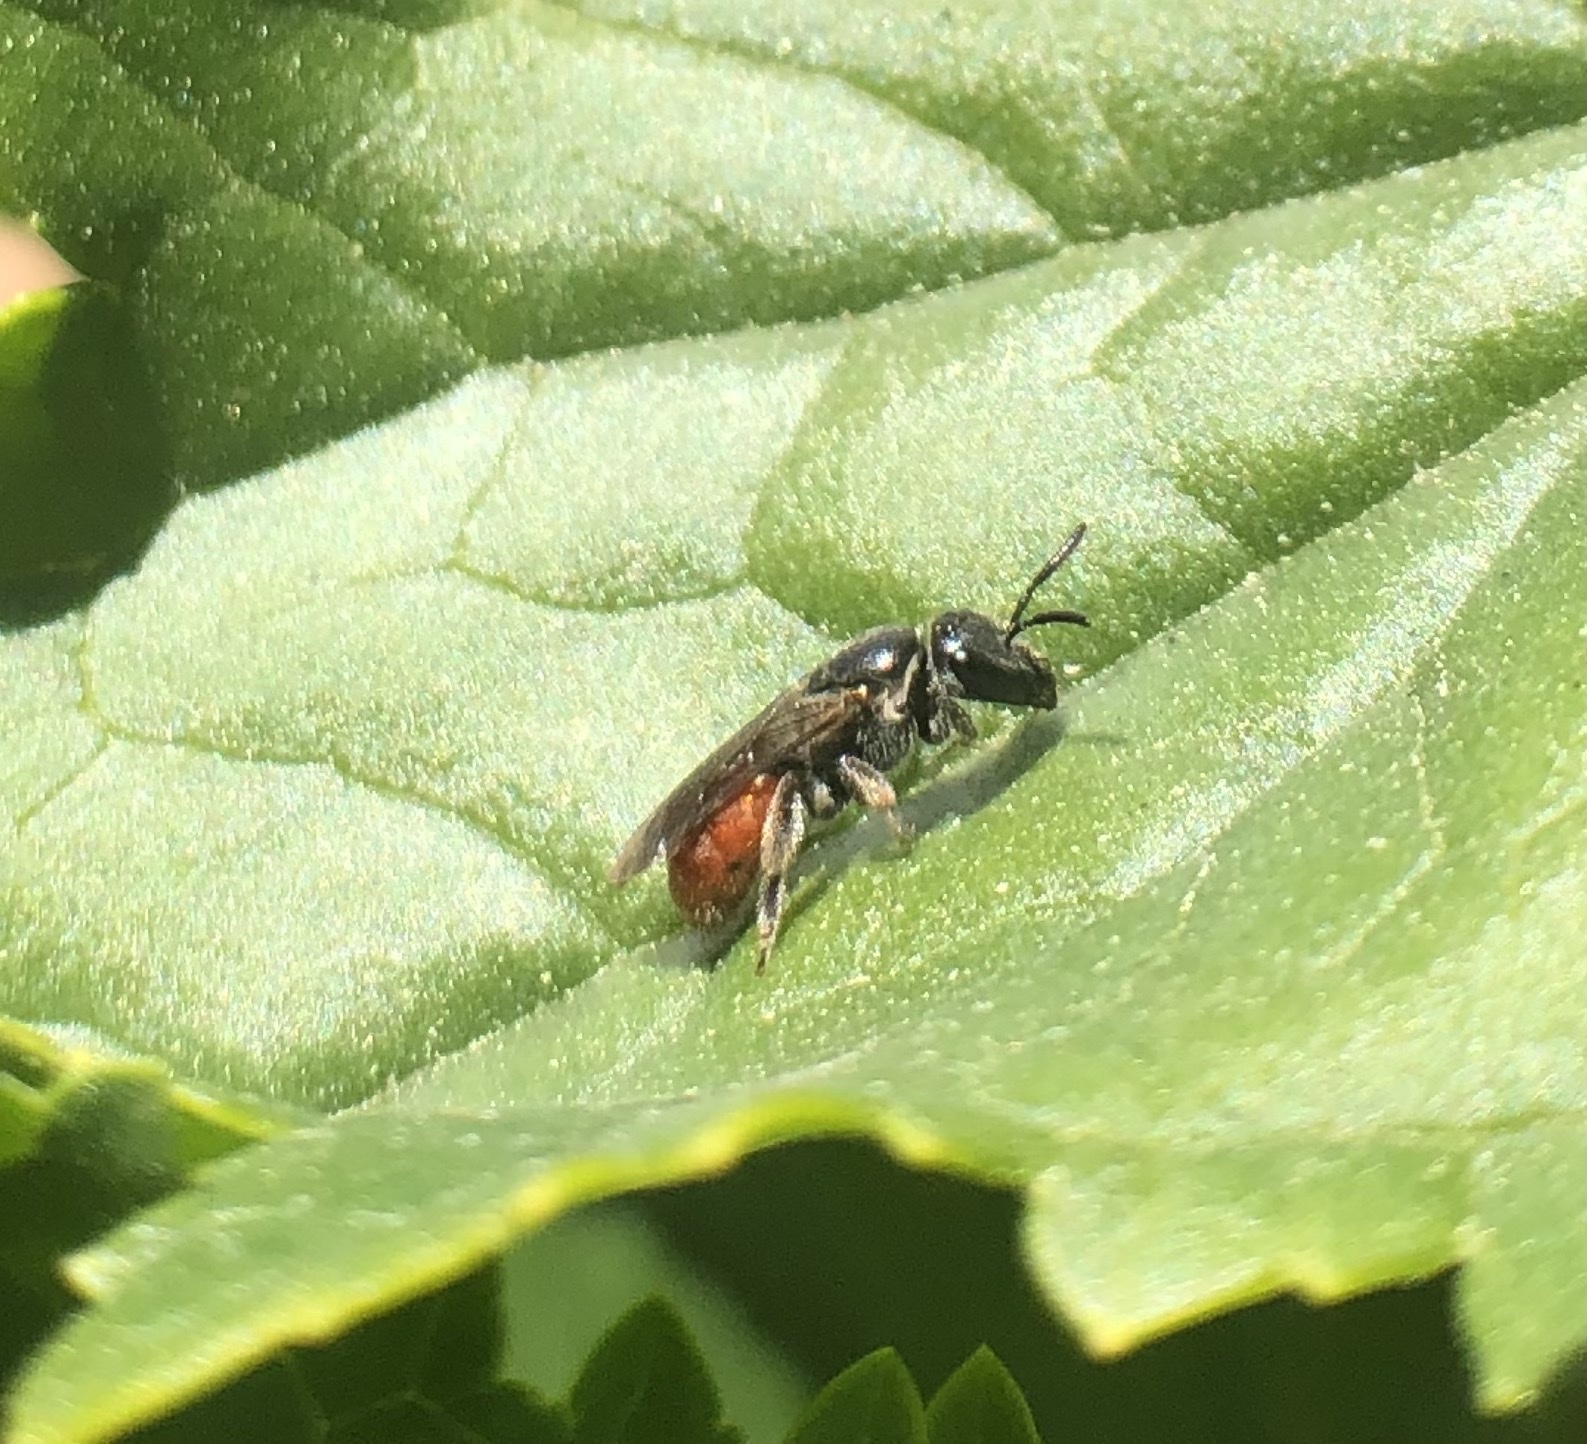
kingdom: Animalia
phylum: Arthropoda
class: Insecta
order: Hymenoptera
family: Halictidae
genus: Lasioglossum
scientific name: Lasioglossum ovaliceps
